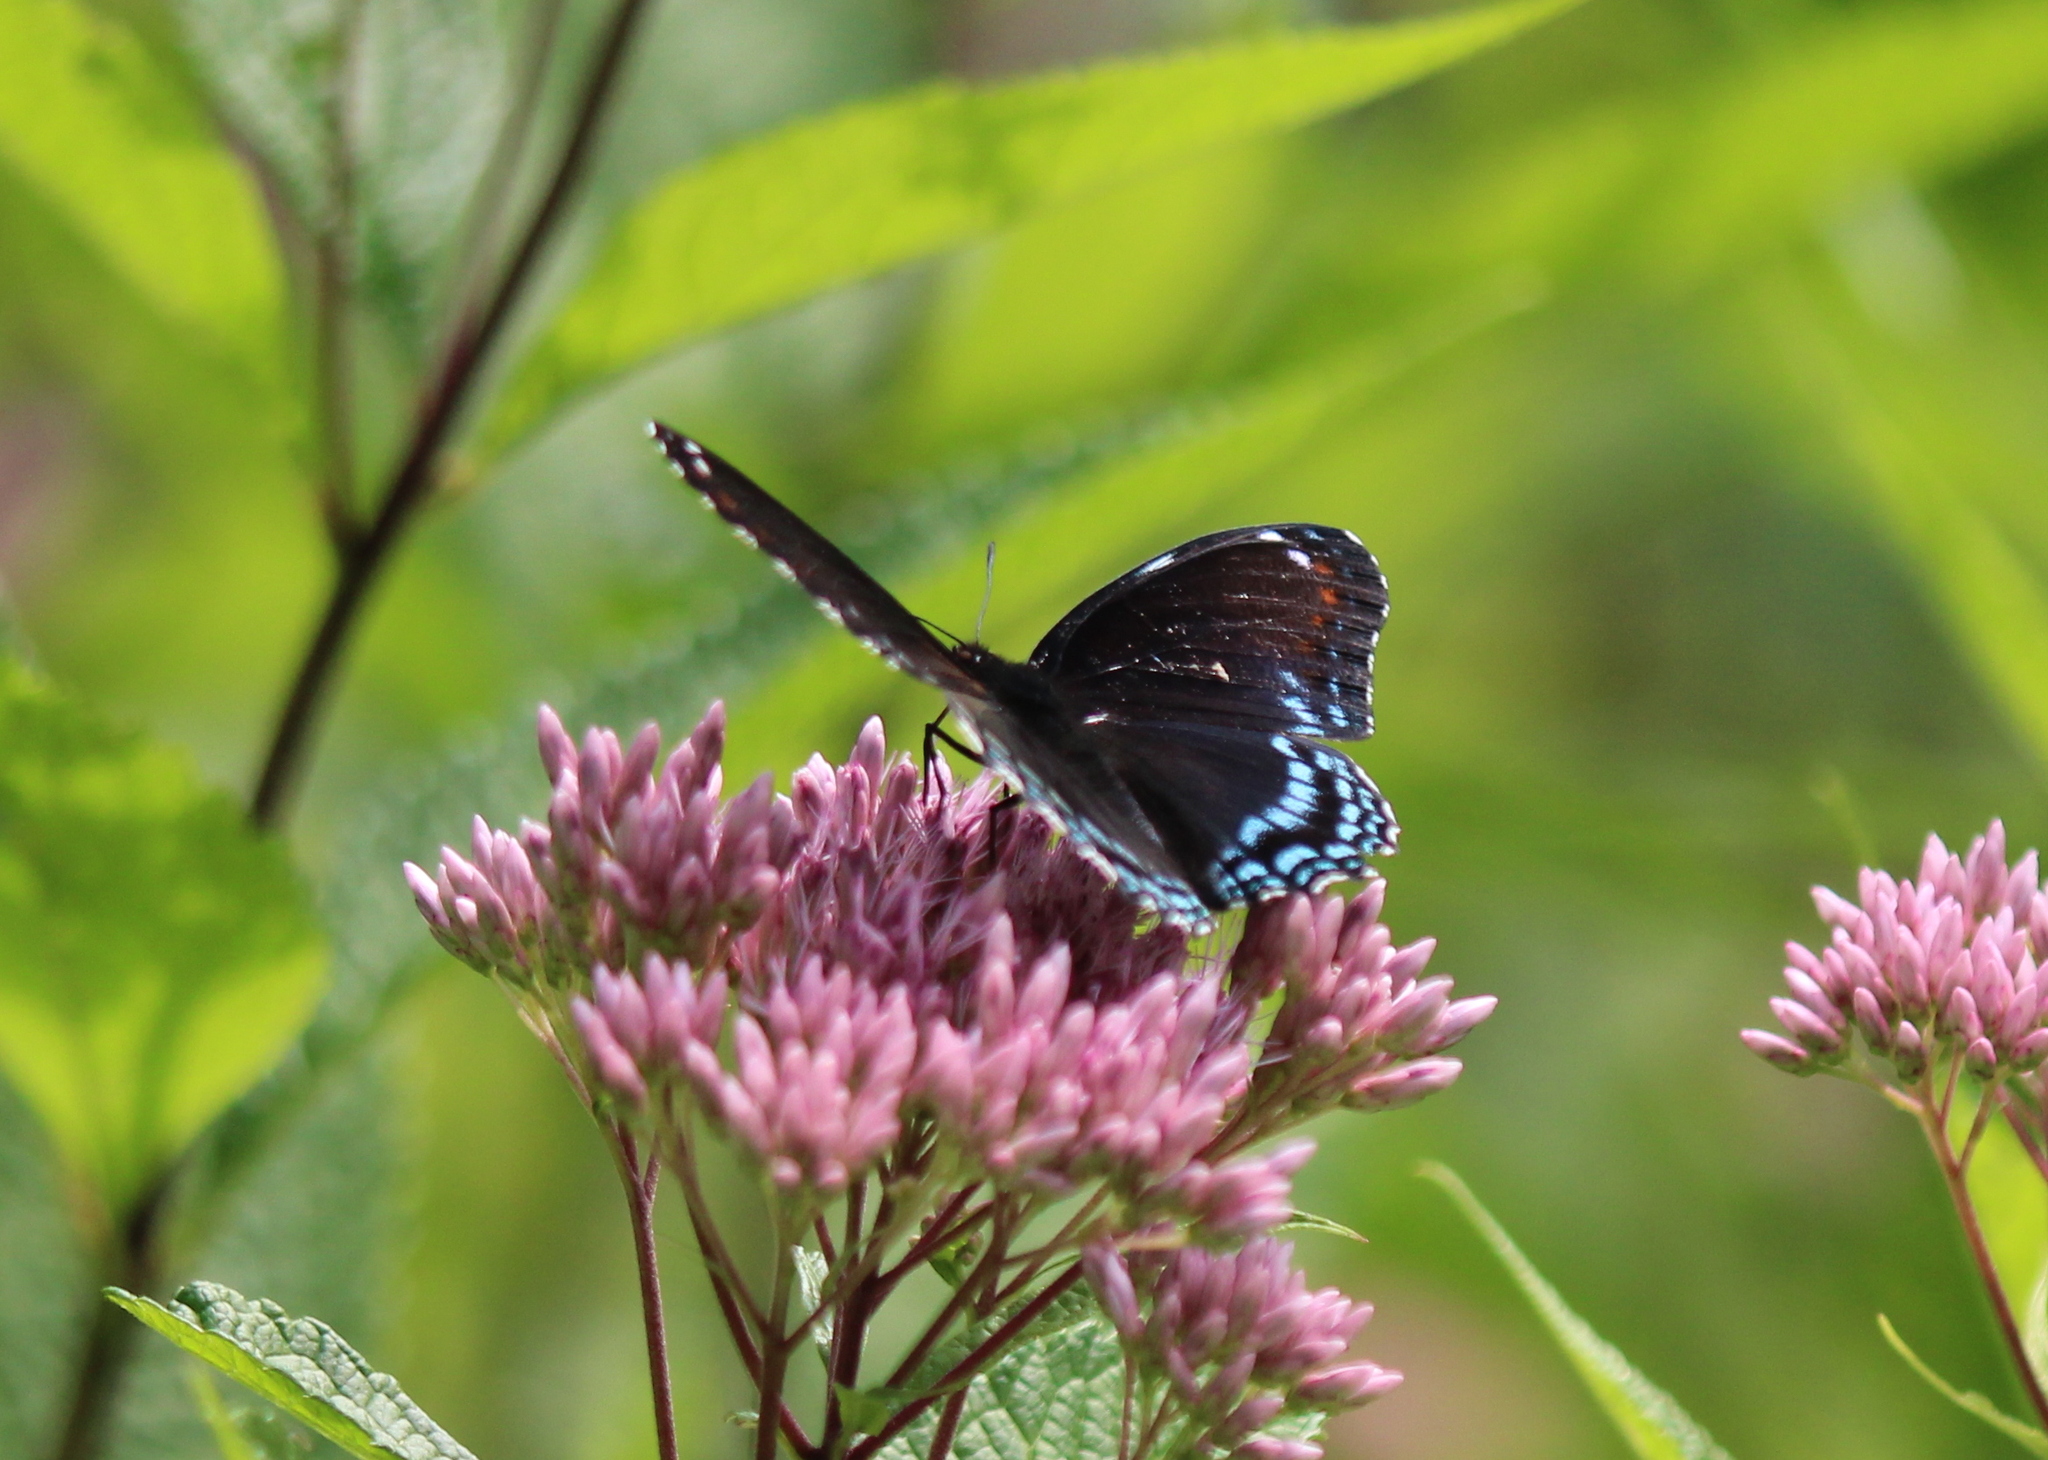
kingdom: Animalia
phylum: Arthropoda
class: Insecta
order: Lepidoptera
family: Nymphalidae
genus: Limenitis
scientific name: Limenitis
